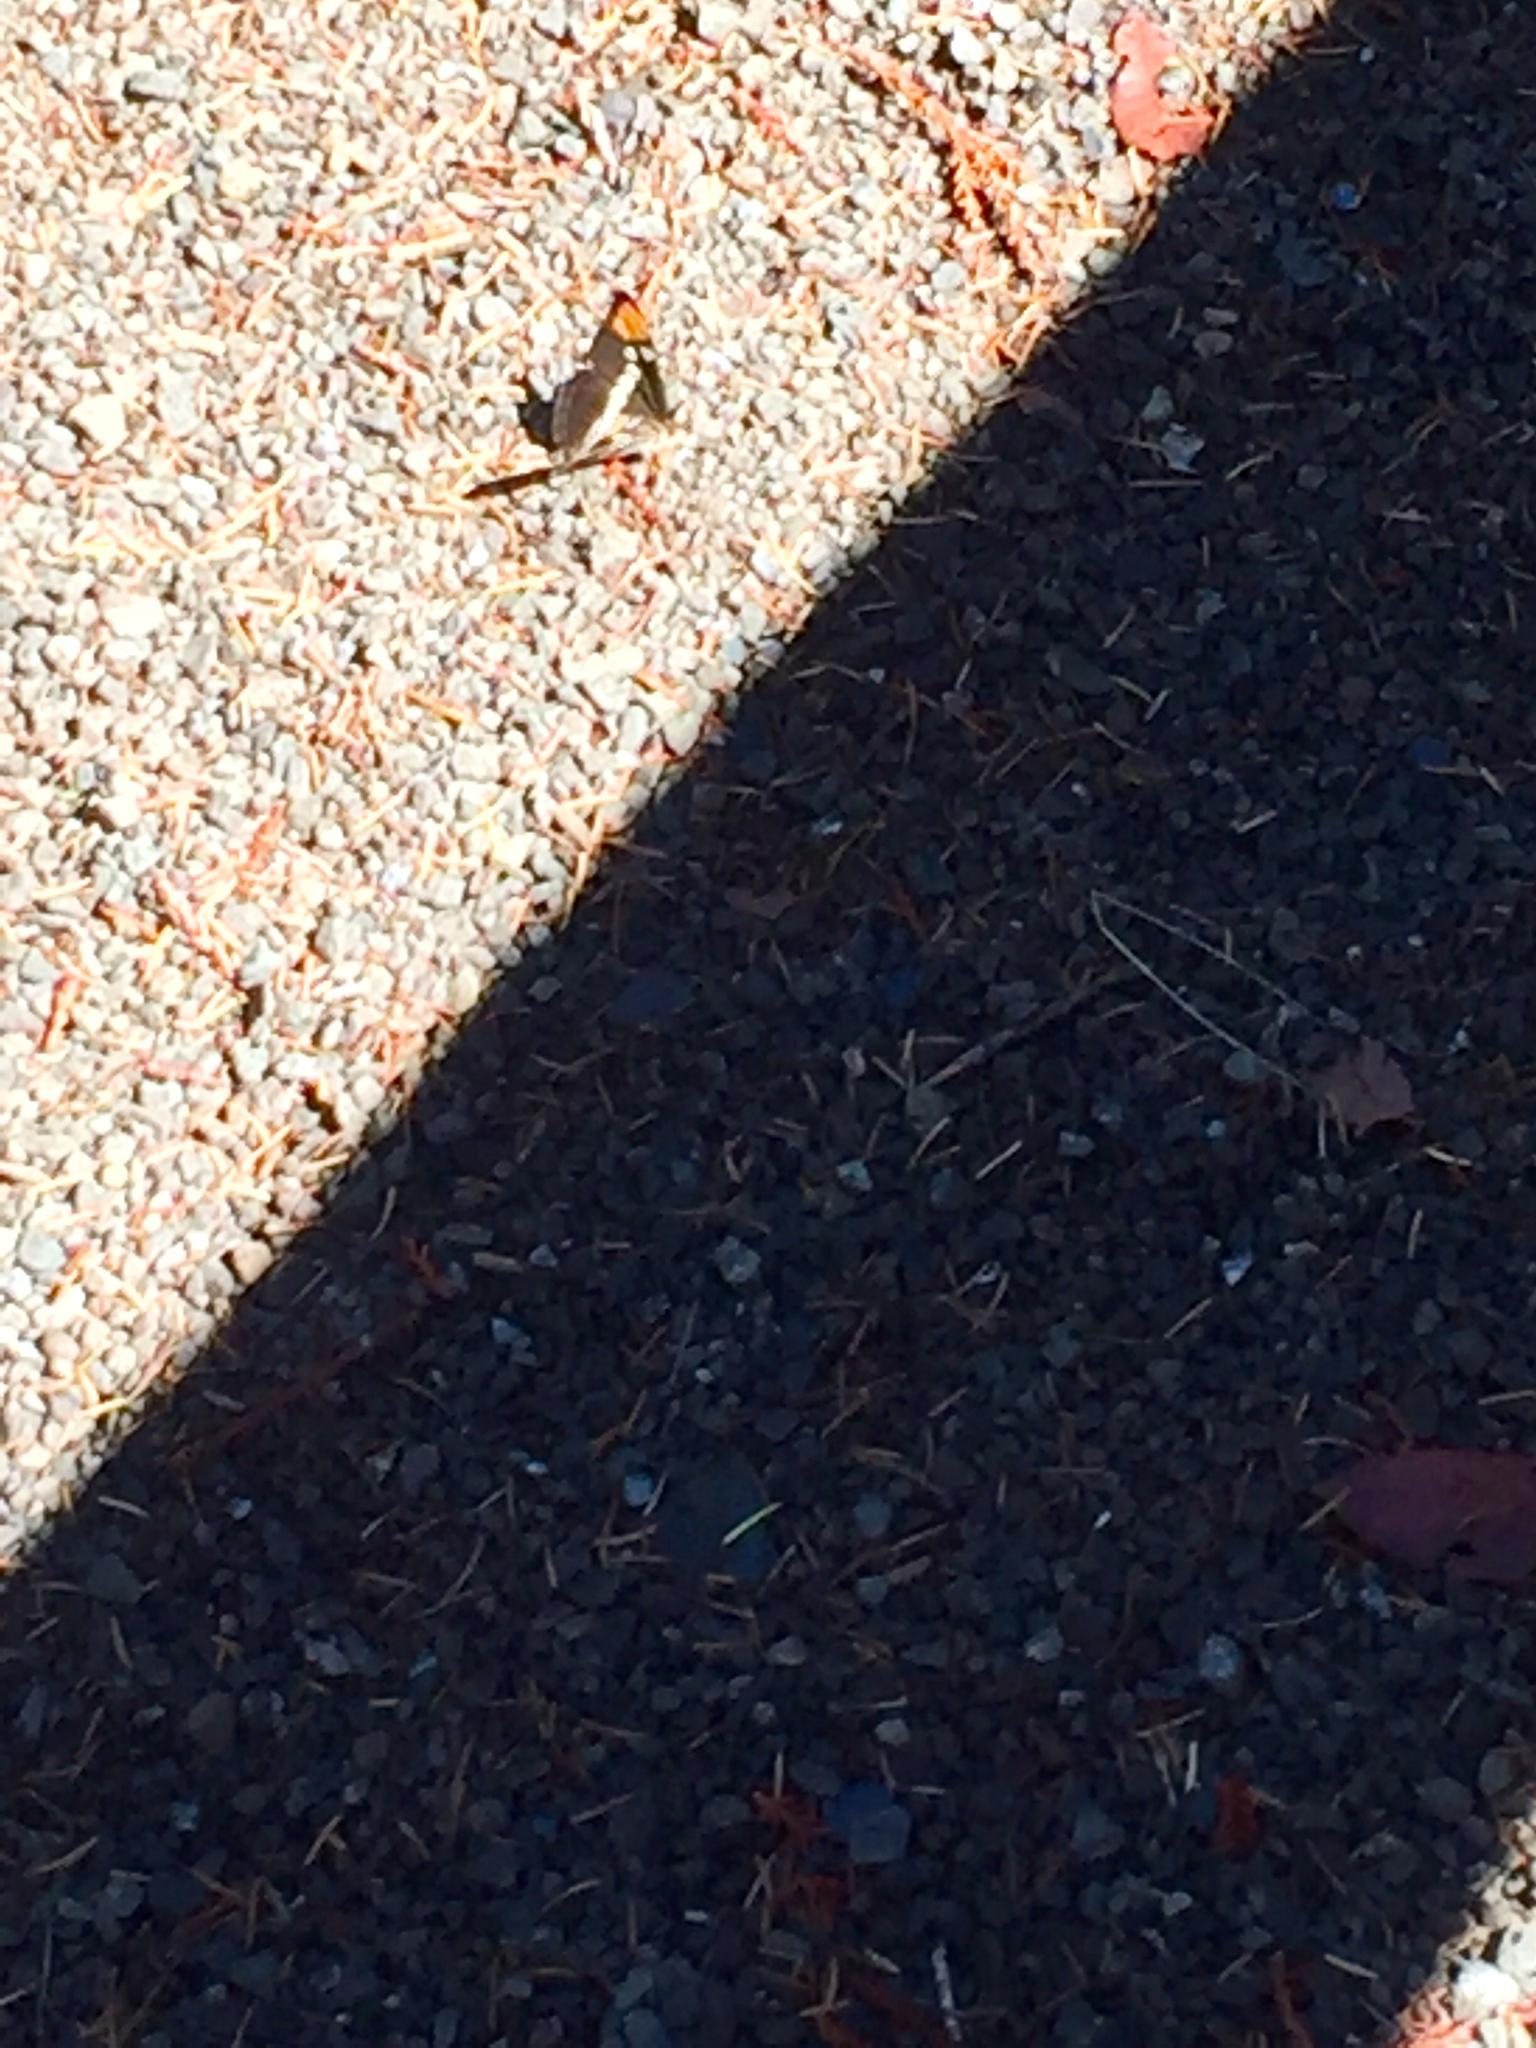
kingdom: Animalia
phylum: Arthropoda
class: Insecta
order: Lepidoptera
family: Nymphalidae
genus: Limenitis
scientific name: Limenitis bredowii
